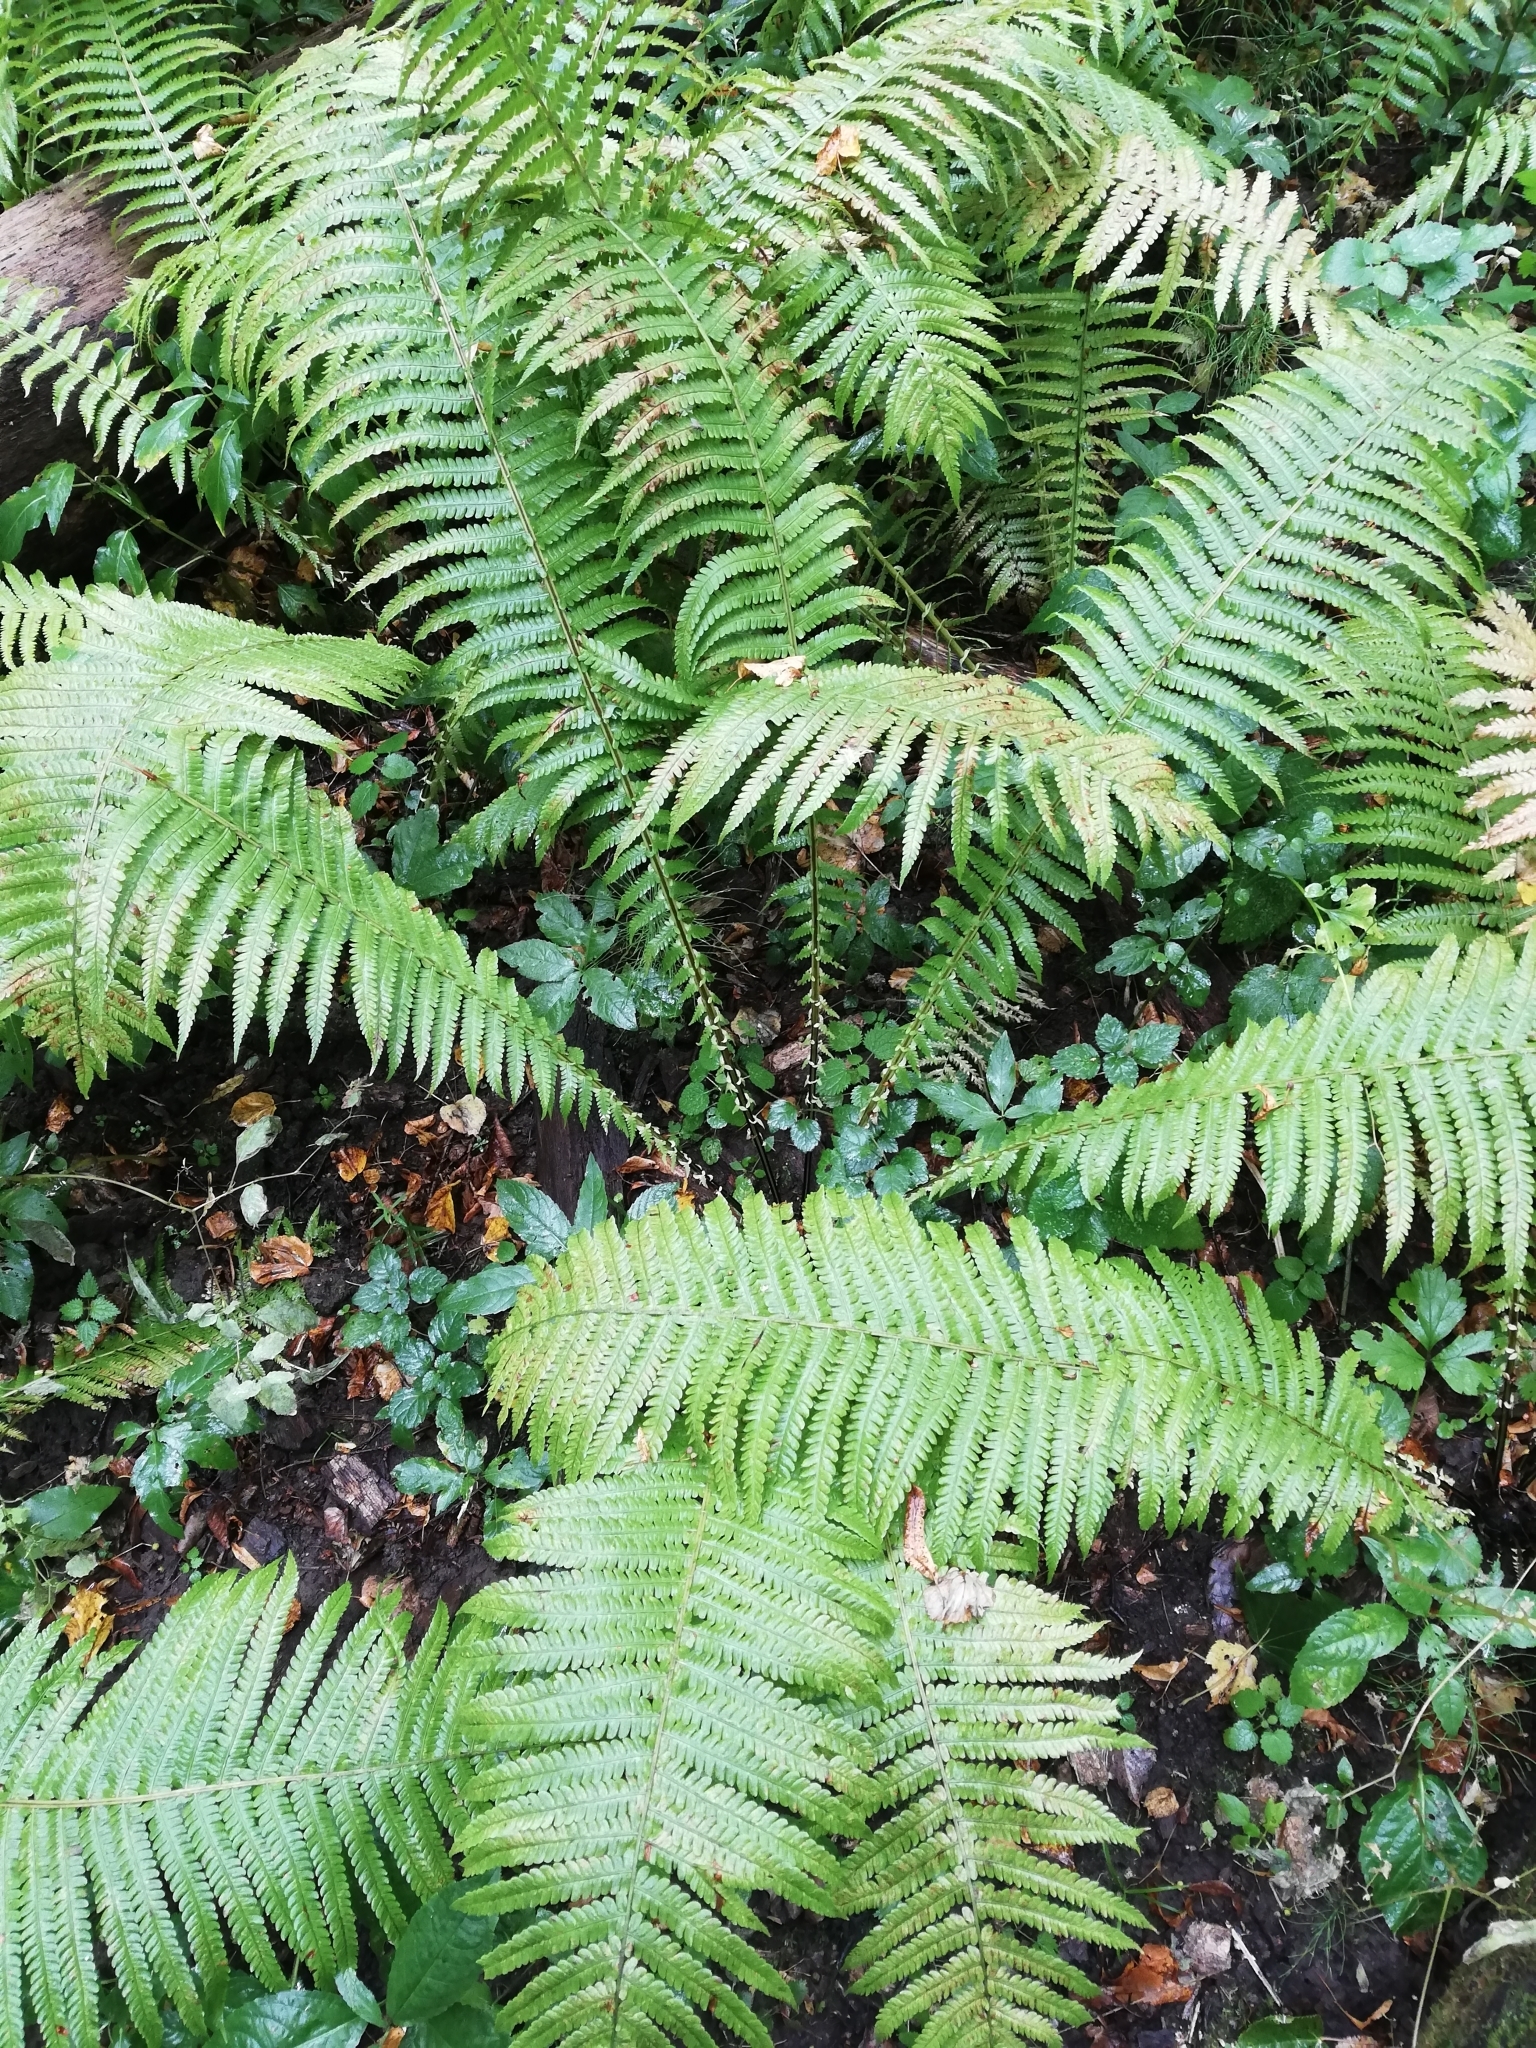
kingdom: Plantae
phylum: Tracheophyta
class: Polypodiopsida
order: Polypodiales
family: Onocleaceae
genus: Matteuccia
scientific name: Matteuccia struthiopteris
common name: Ostrich fern
